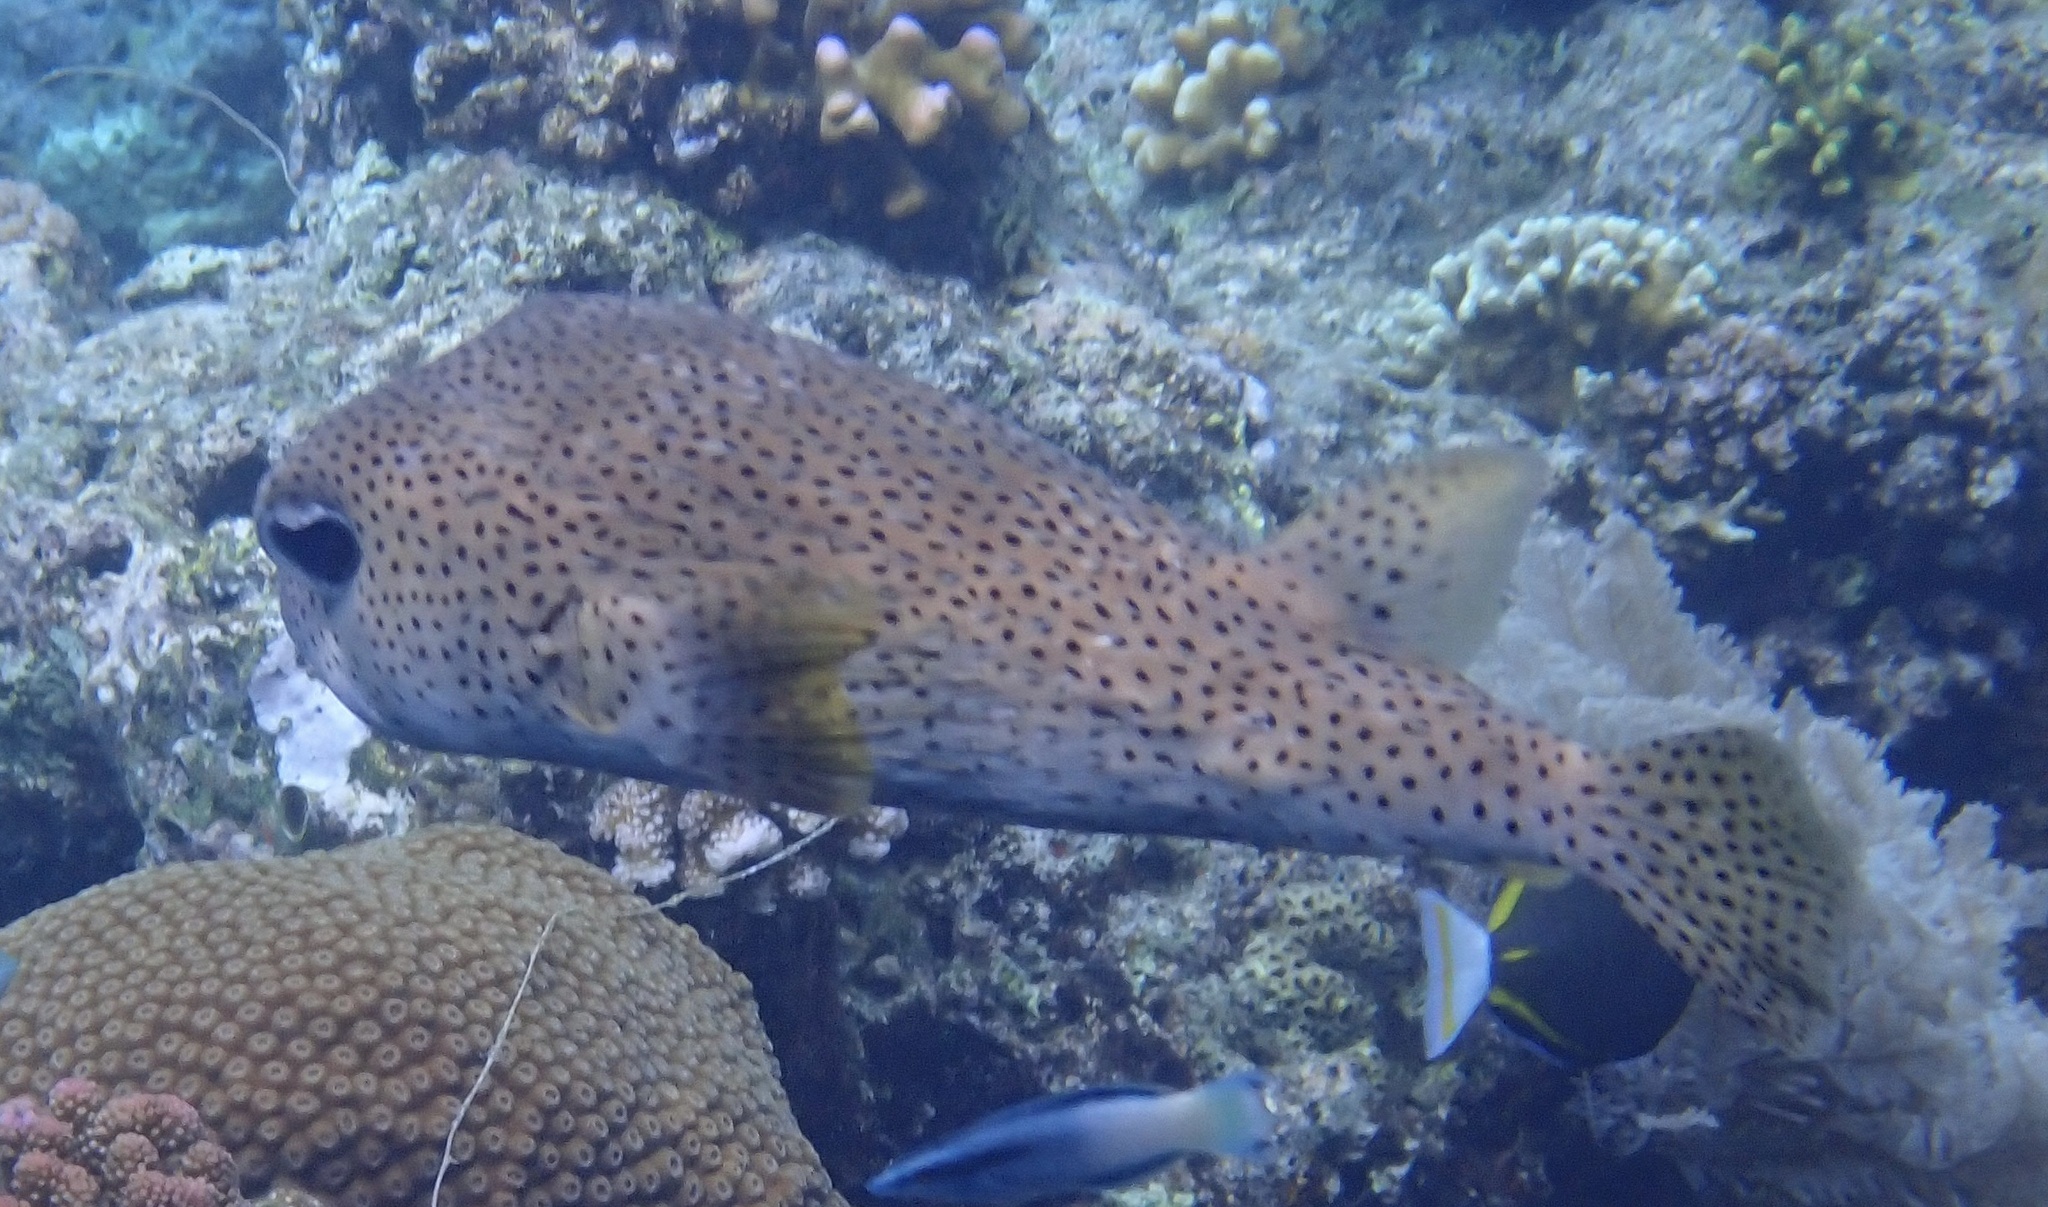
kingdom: Animalia
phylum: Chordata
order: Tetraodontiformes
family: Diodontidae
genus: Diodon
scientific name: Diodon hystrix
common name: Giant porcupinefish
